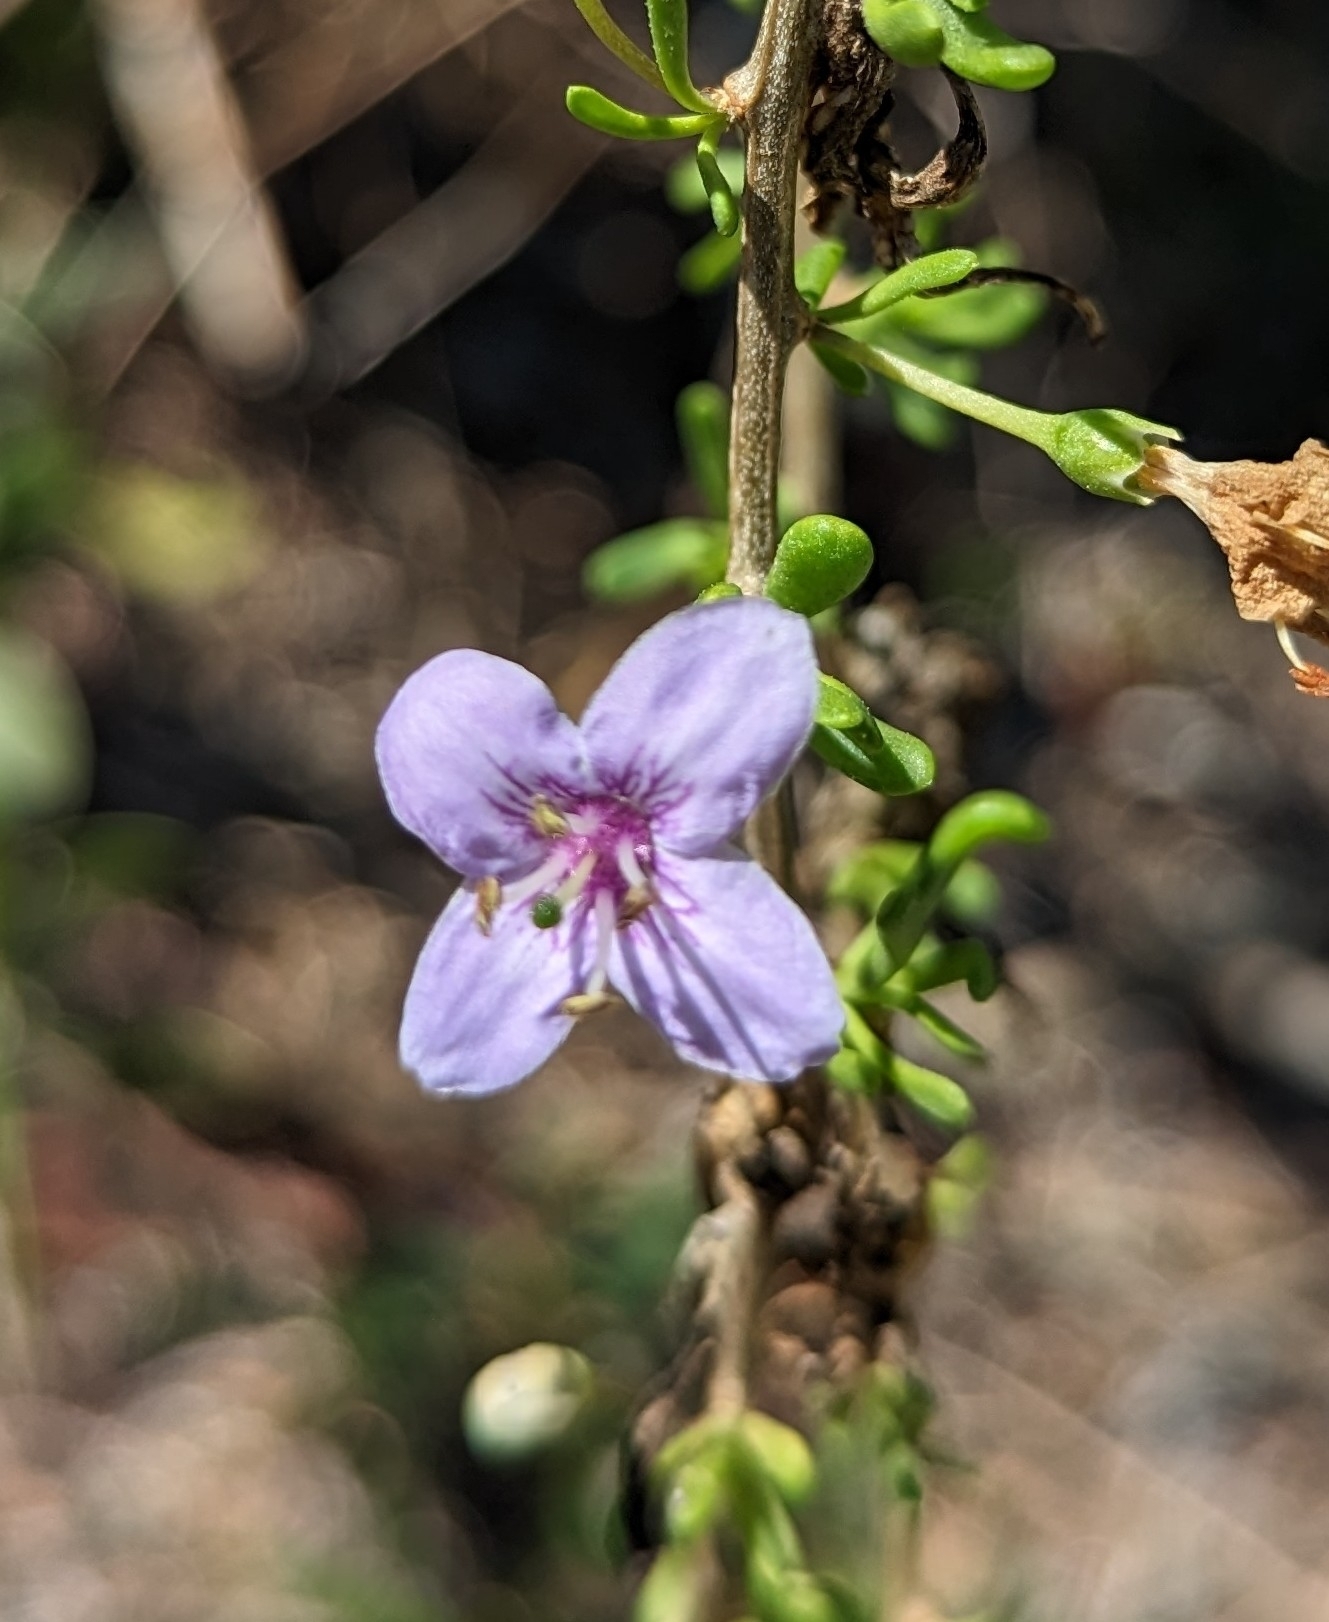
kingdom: Plantae
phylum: Tracheophyta
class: Magnoliopsida
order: Solanales
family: Solanaceae
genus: Lycium
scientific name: Lycium carolinianum
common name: Christmasberry
